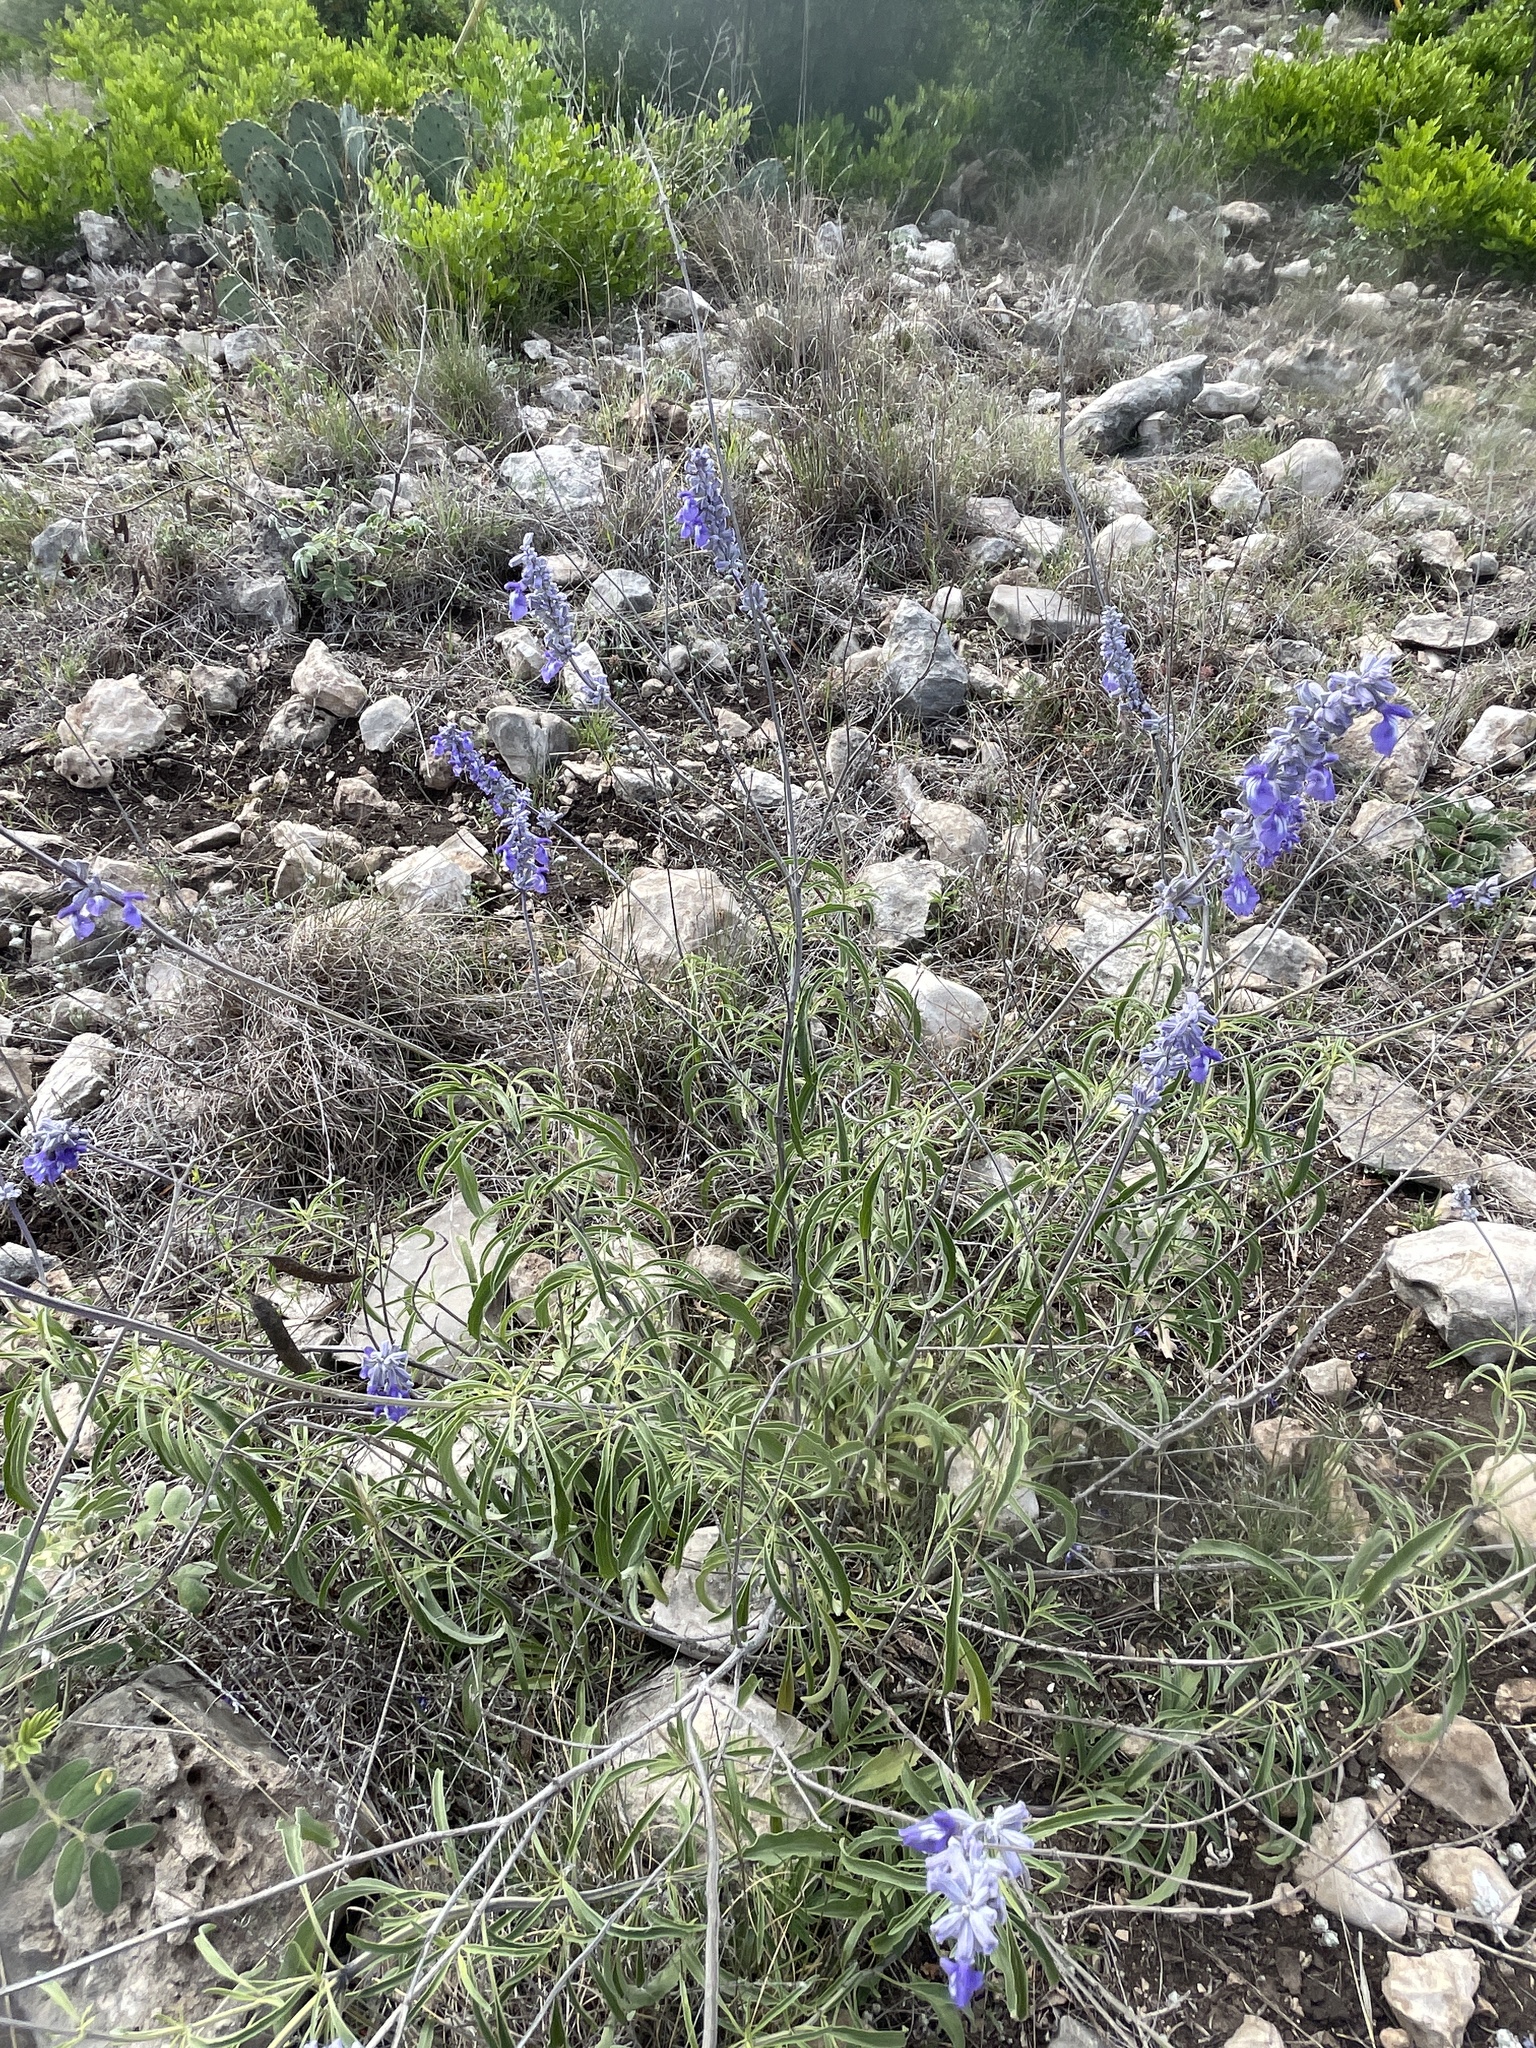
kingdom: Plantae
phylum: Tracheophyta
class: Magnoliopsida
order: Lamiales
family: Lamiaceae
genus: Salvia
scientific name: Salvia farinacea
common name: Mealy sage
